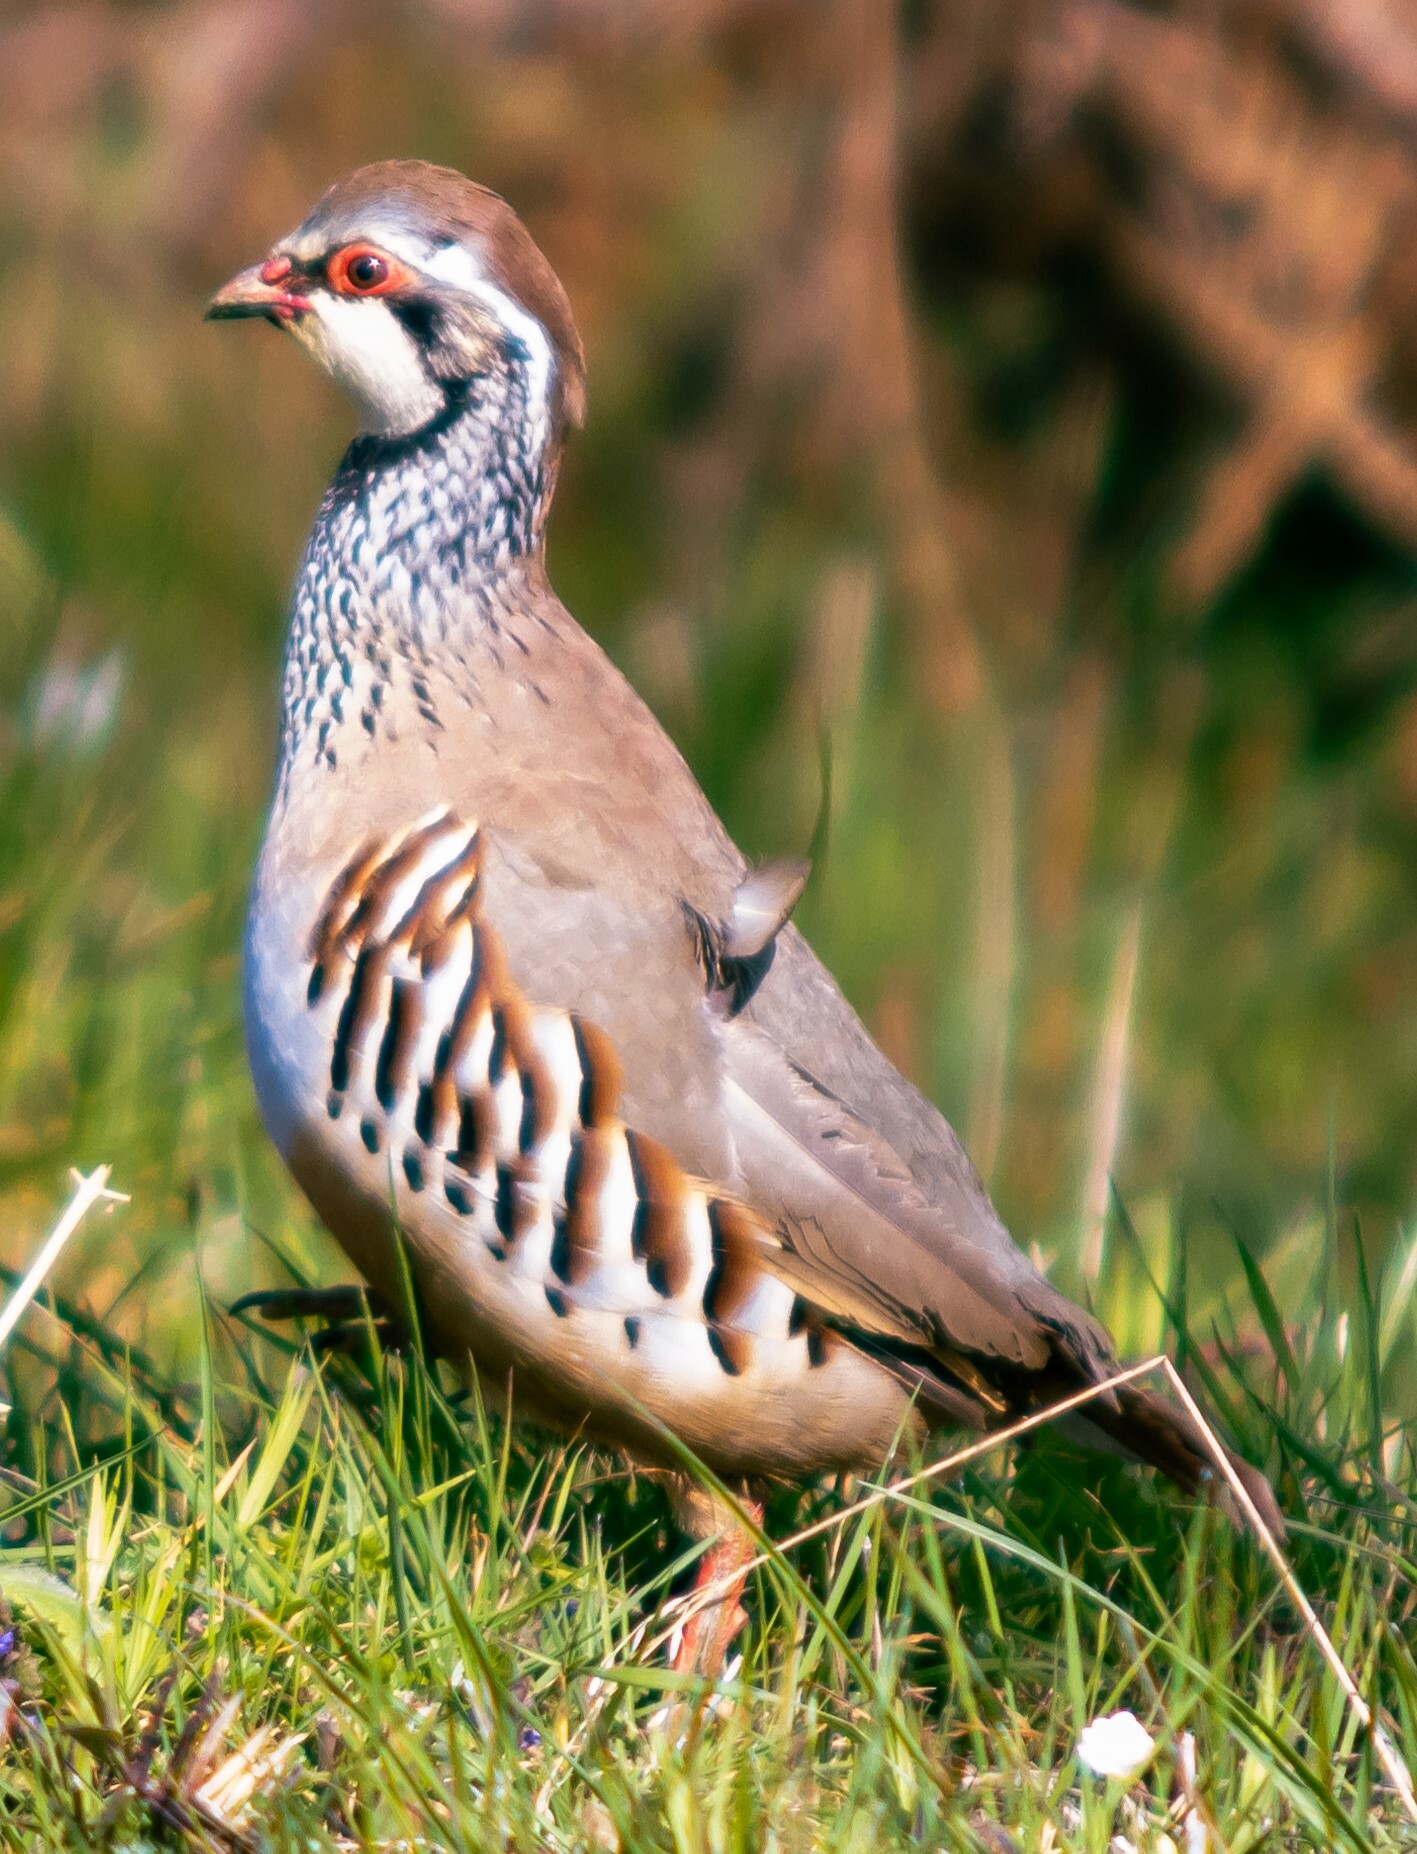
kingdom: Animalia
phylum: Chordata
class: Aves
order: Galliformes
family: Phasianidae
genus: Alectoris
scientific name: Alectoris rufa
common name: Red-legged partridge
